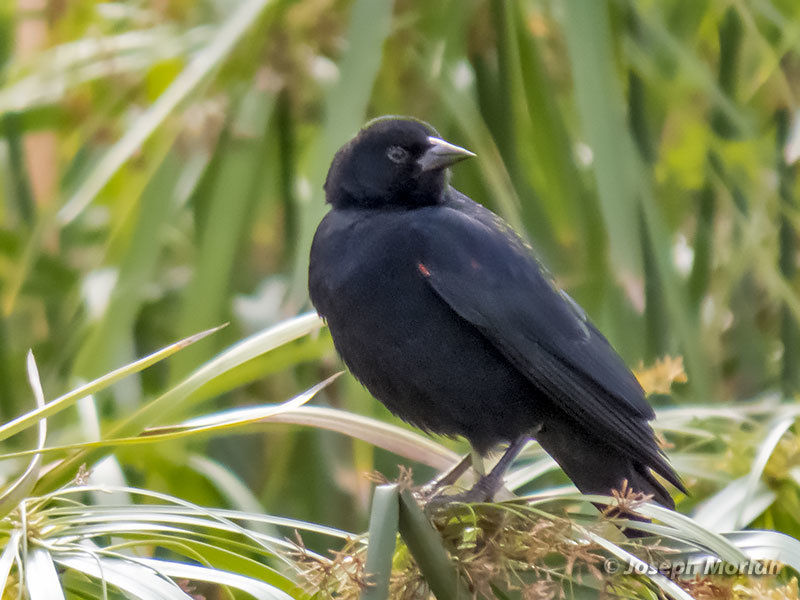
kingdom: Animalia
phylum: Chordata
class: Aves
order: Passeriformes
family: Icteridae
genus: Agelaius
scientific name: Agelaius phoeniceus
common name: Red-winged blackbird
